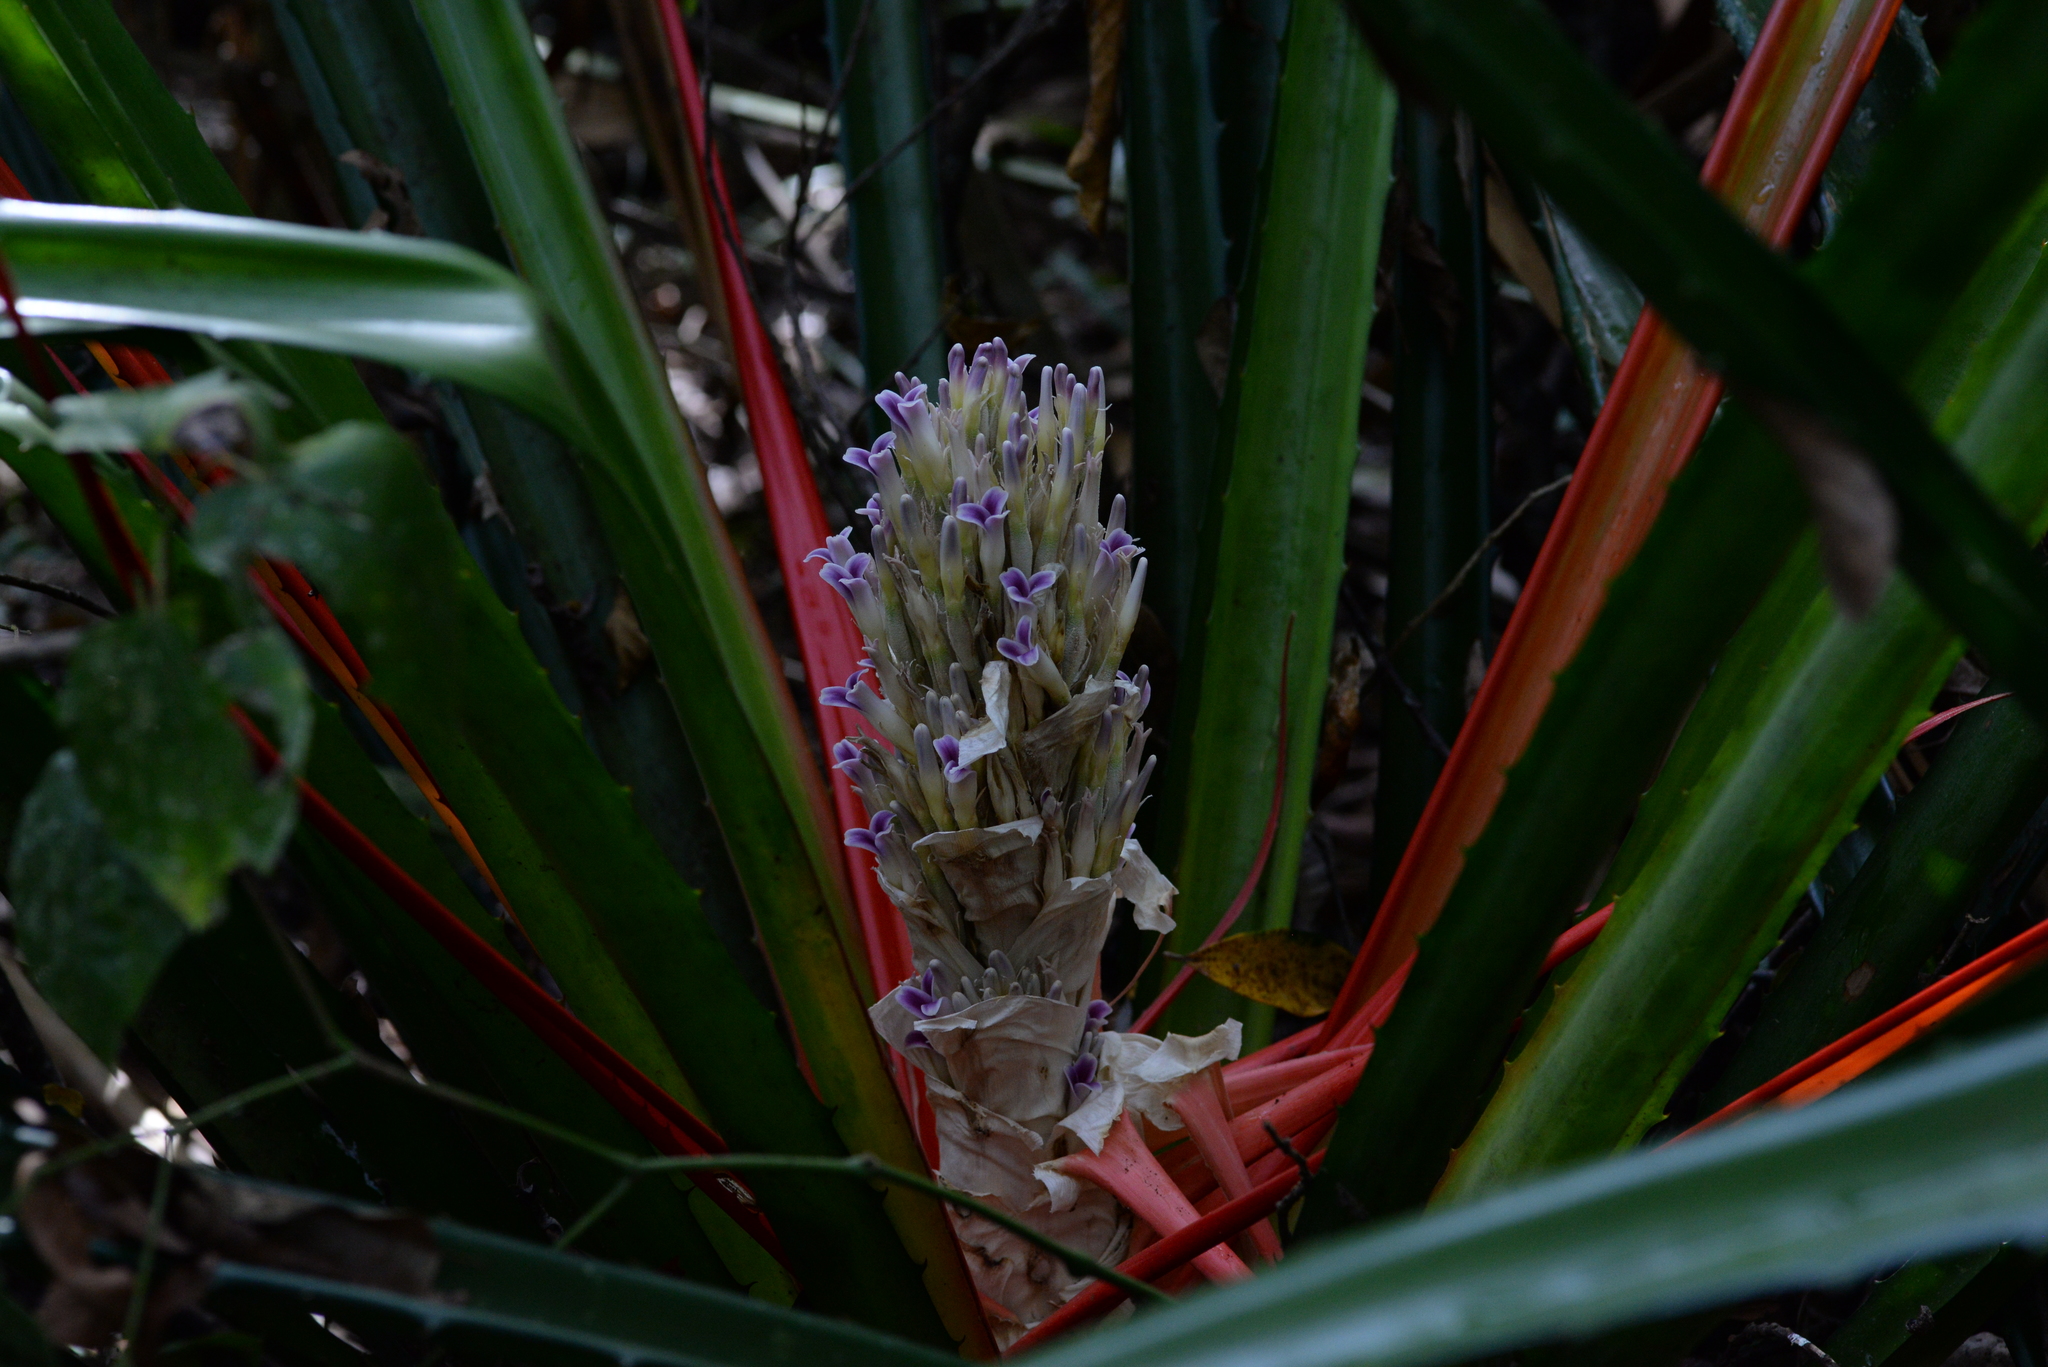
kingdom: Plantae
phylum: Tracheophyta
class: Liliopsida
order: Poales
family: Bromeliaceae
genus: Bromelia
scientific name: Bromelia pinguin
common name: Pinguin
